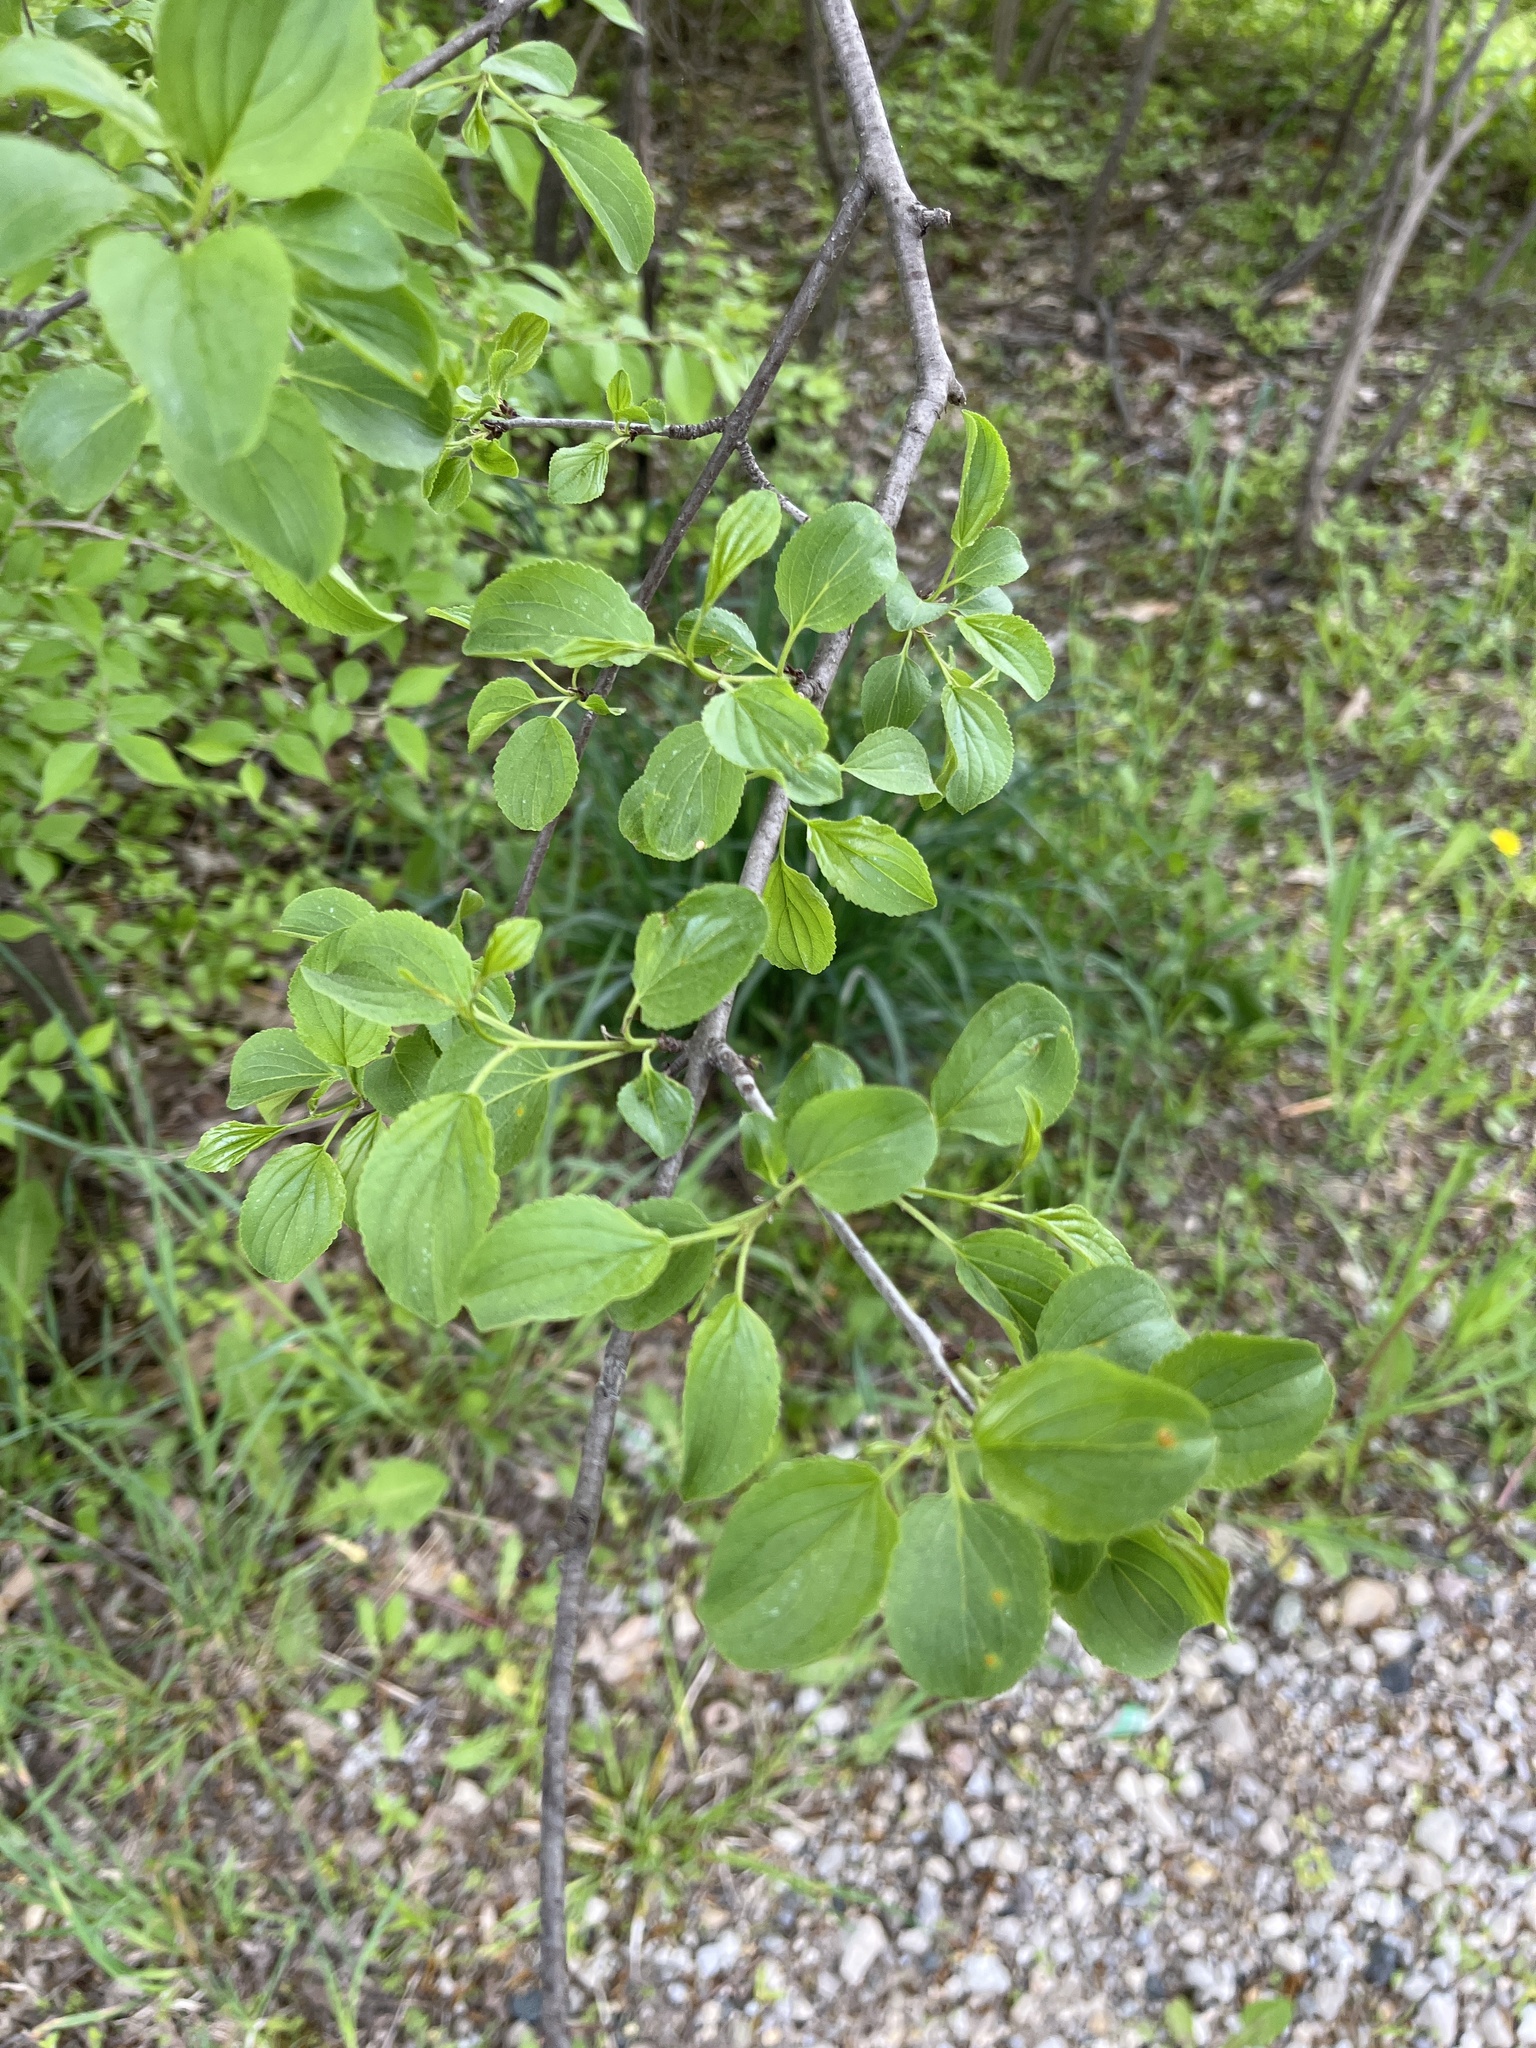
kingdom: Plantae
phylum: Tracheophyta
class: Magnoliopsida
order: Rosales
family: Rhamnaceae
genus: Rhamnus
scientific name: Rhamnus cathartica
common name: Common buckthorn
